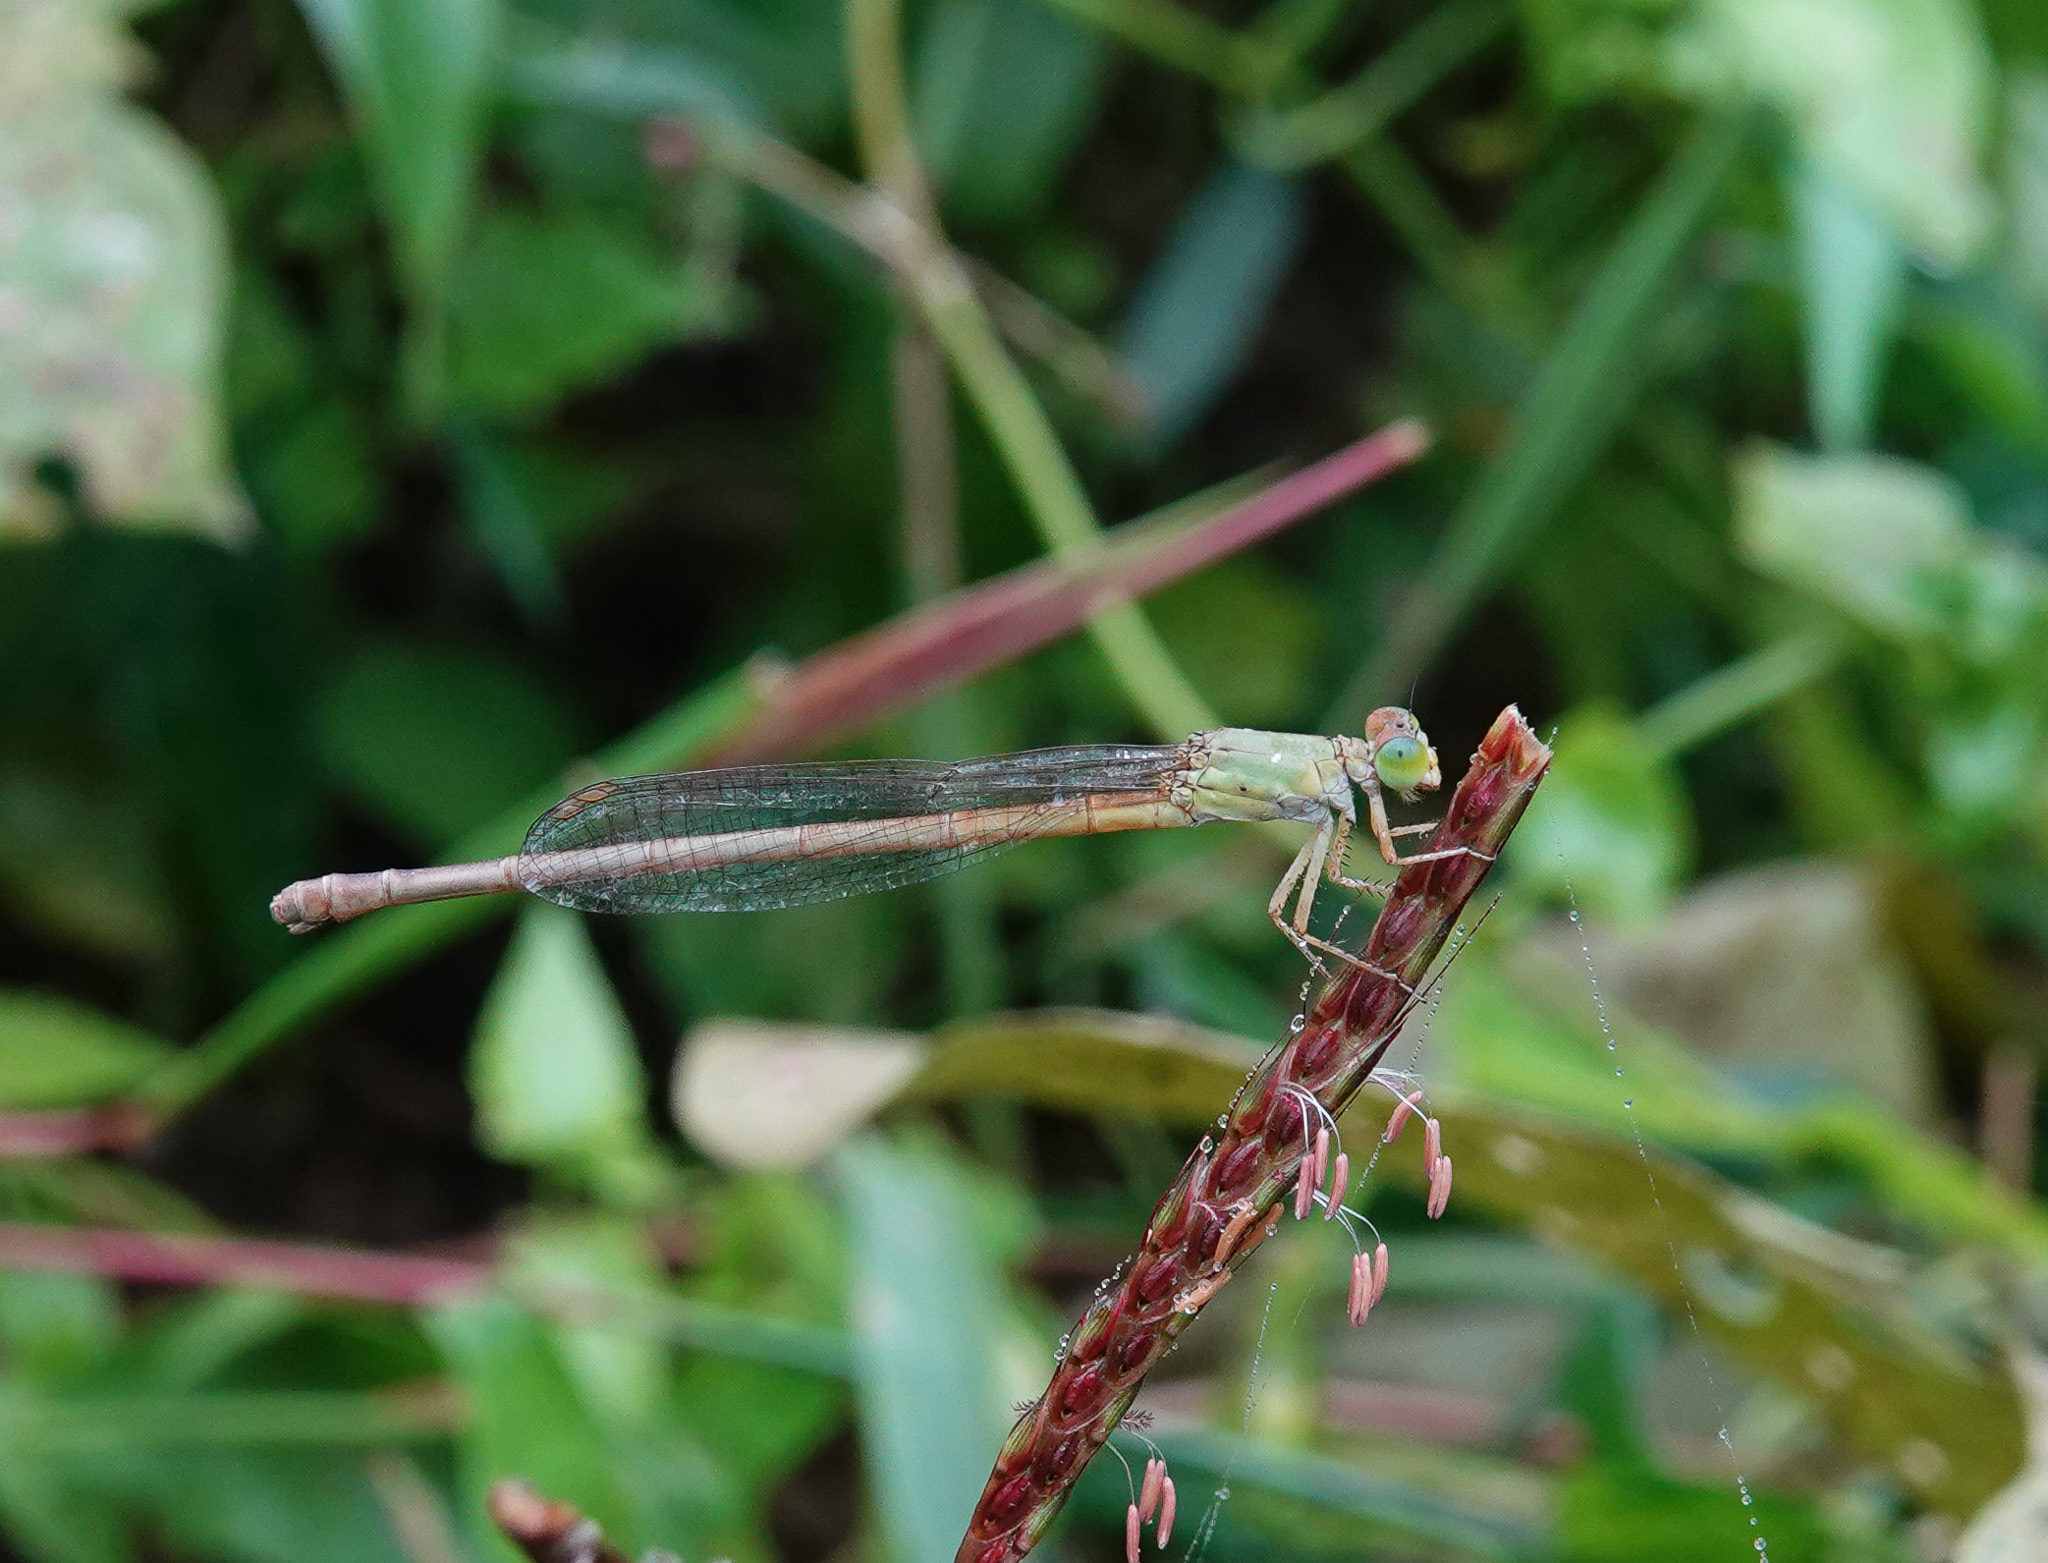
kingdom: Animalia
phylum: Arthropoda
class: Insecta
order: Odonata
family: Coenagrionidae
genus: Ceriagrion
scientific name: Ceriagrion coromandelianum
